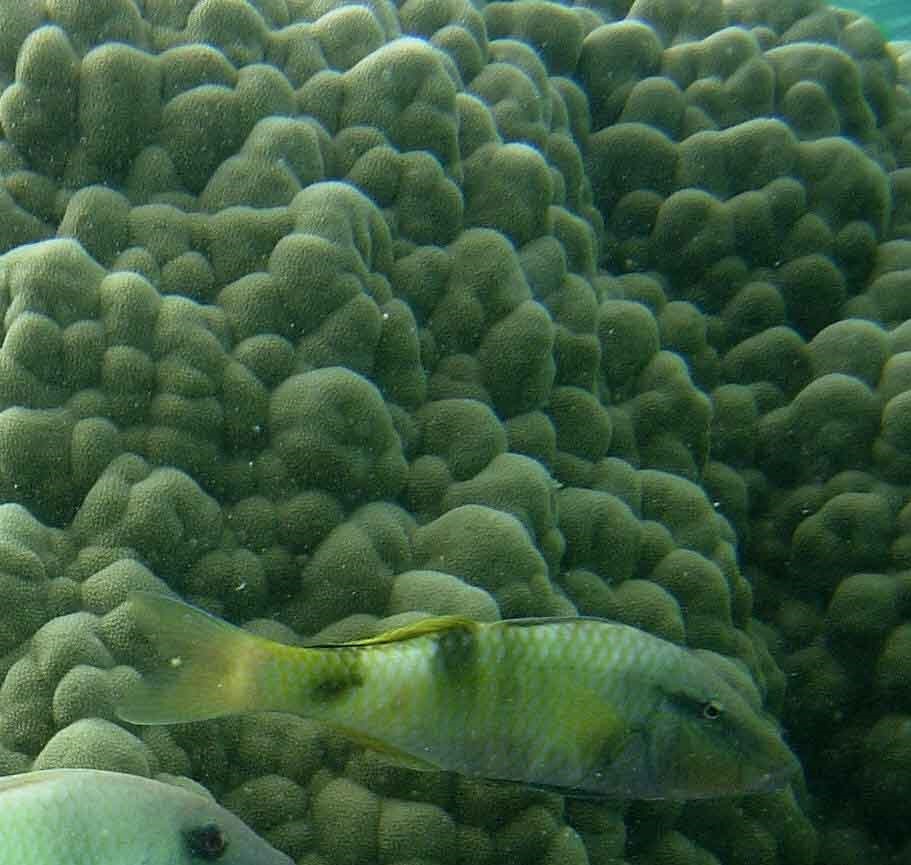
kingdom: Animalia
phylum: Chordata
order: Perciformes
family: Mullidae
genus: Parupeneus
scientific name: Parupeneus multifasciatus
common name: Manybar goatfish
